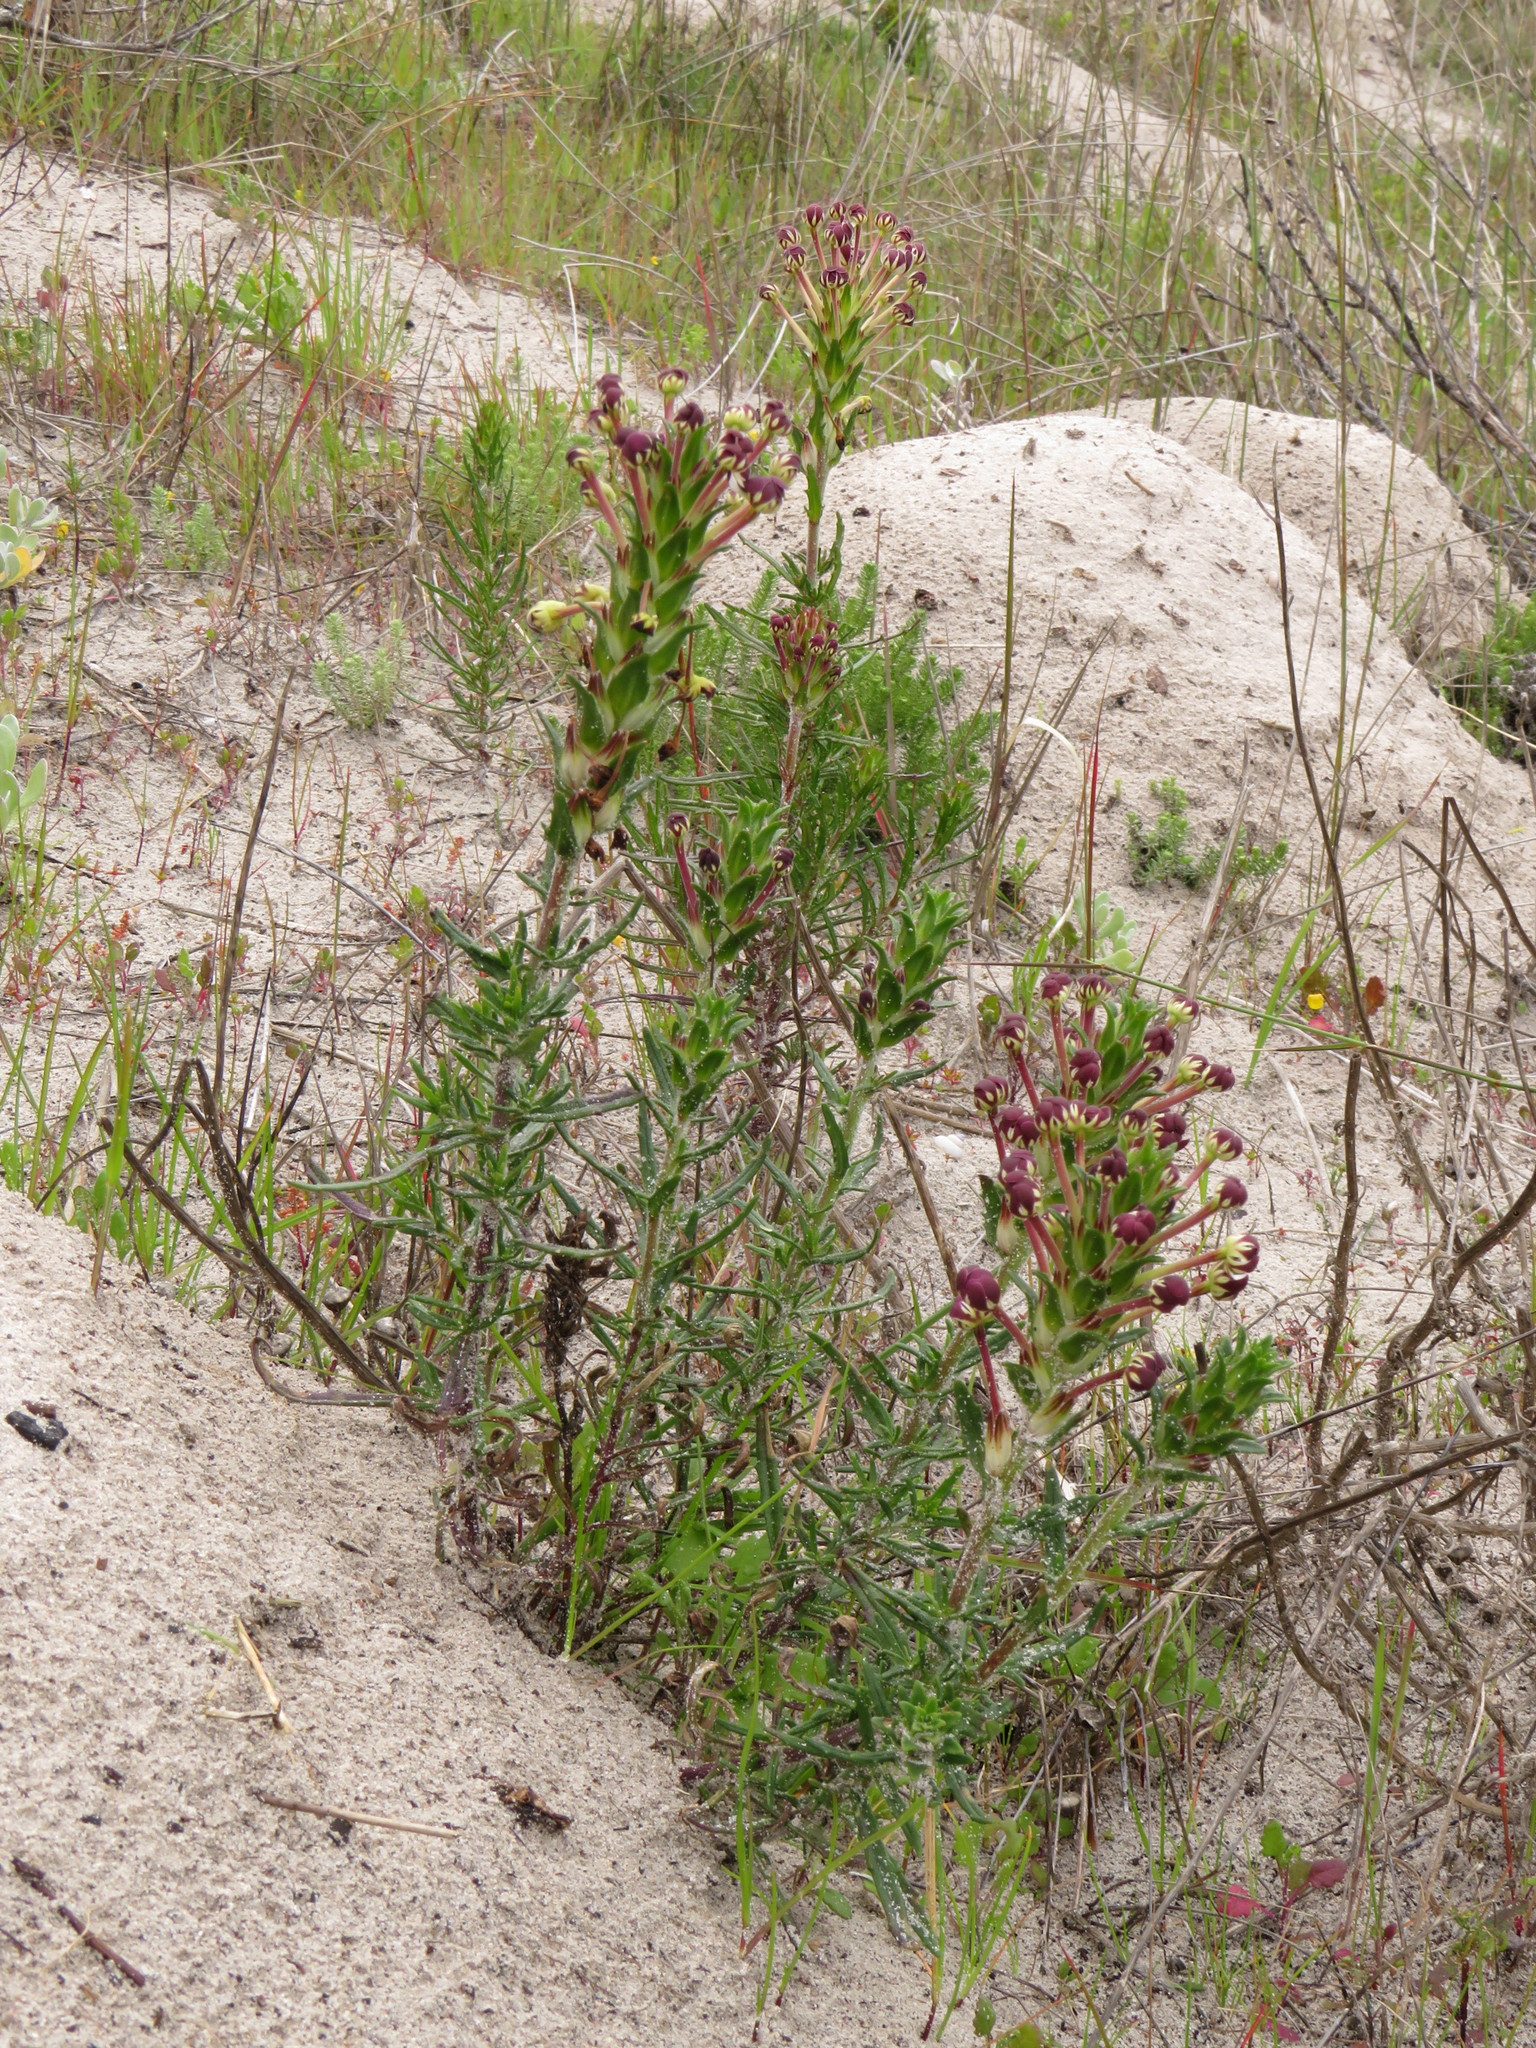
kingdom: Plantae
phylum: Tracheophyta
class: Magnoliopsida
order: Lamiales
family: Scrophulariaceae
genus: Zaluzianskya
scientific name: Zaluzianskya capensis
